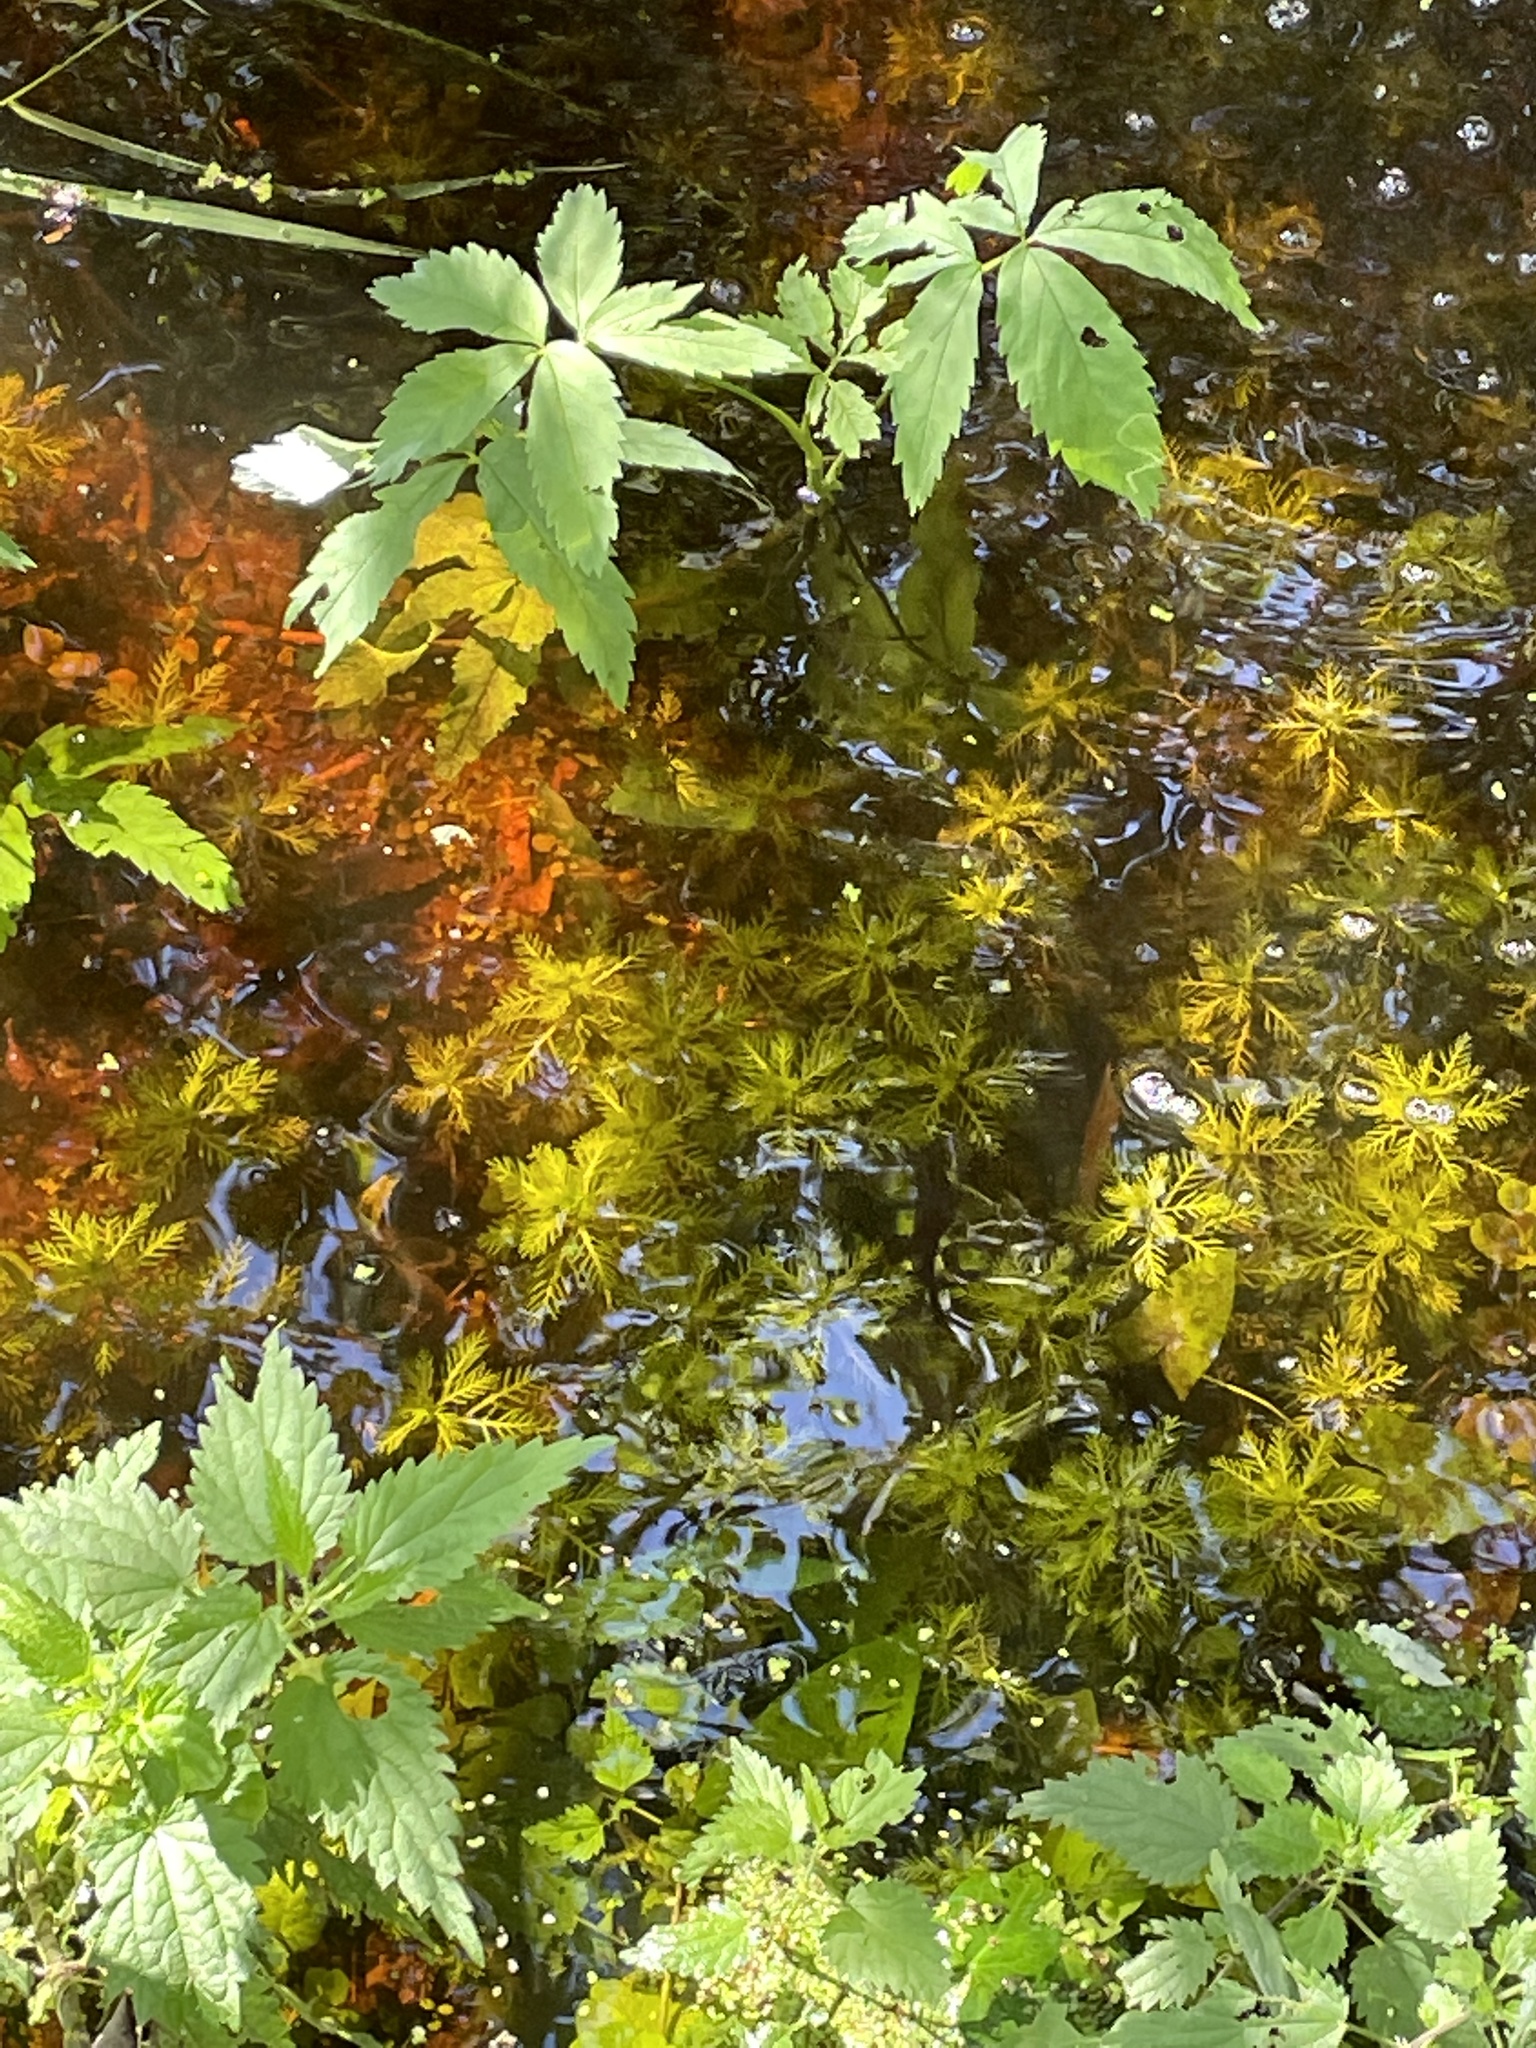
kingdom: Plantae
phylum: Tracheophyta
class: Magnoliopsida
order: Ericales
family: Primulaceae
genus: Hottonia
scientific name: Hottonia palustris
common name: Water-violet
